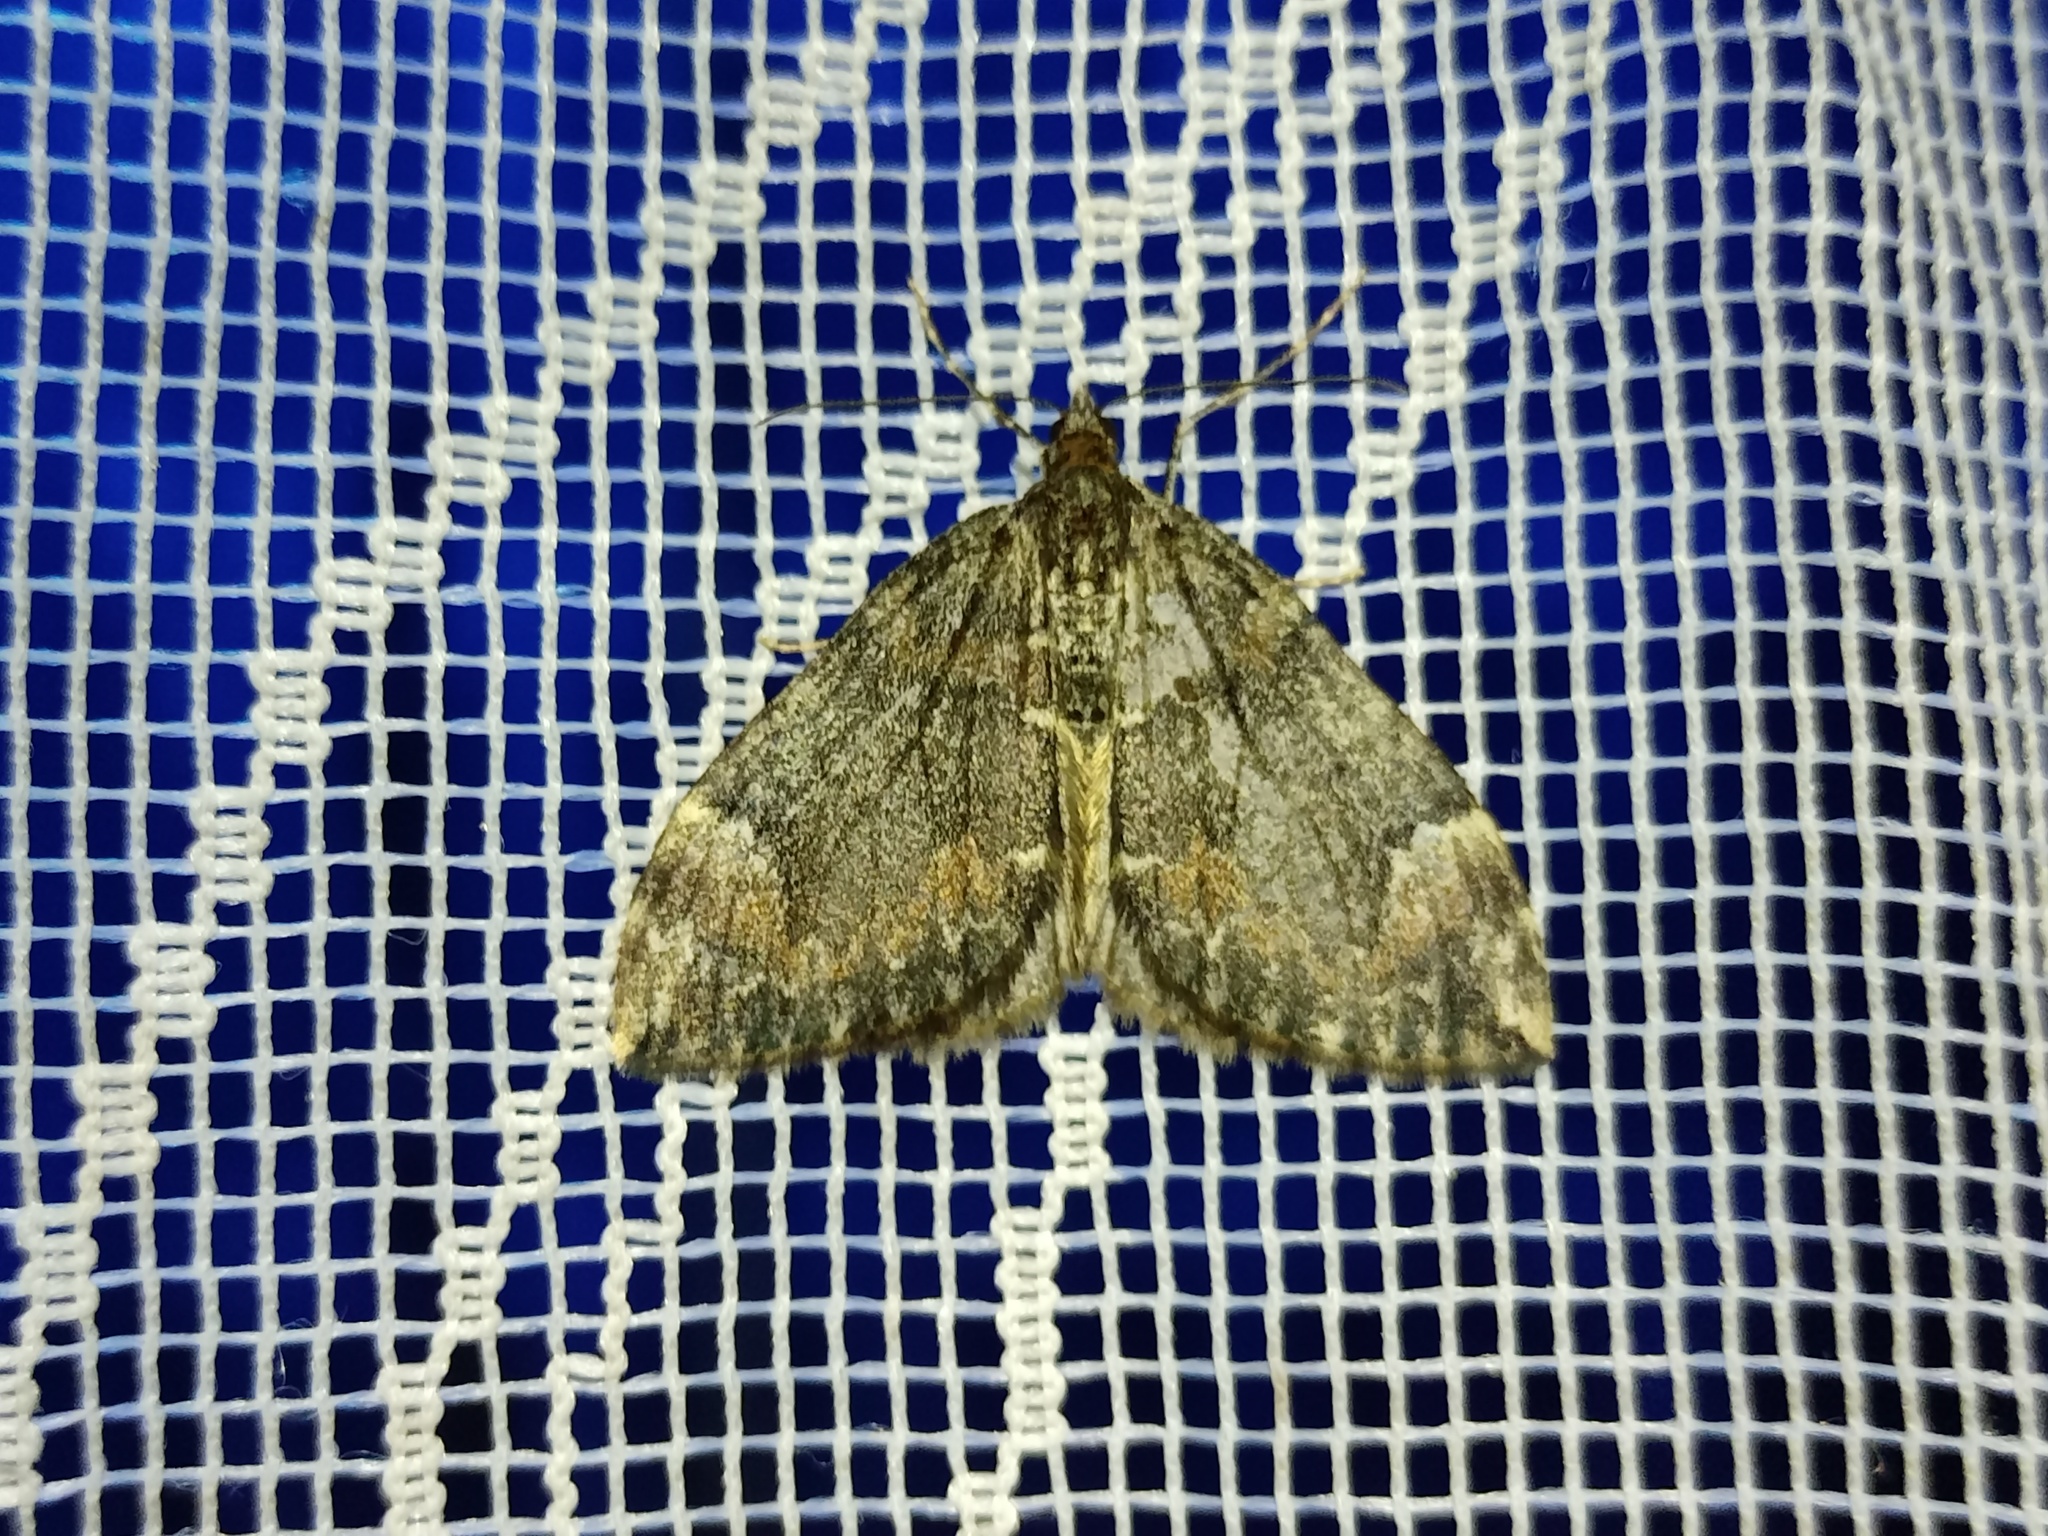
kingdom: Animalia
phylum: Arthropoda
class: Insecta
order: Lepidoptera
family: Geometridae
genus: Dysstroma
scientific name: Dysstroma citrata
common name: Dark marbled carpet
